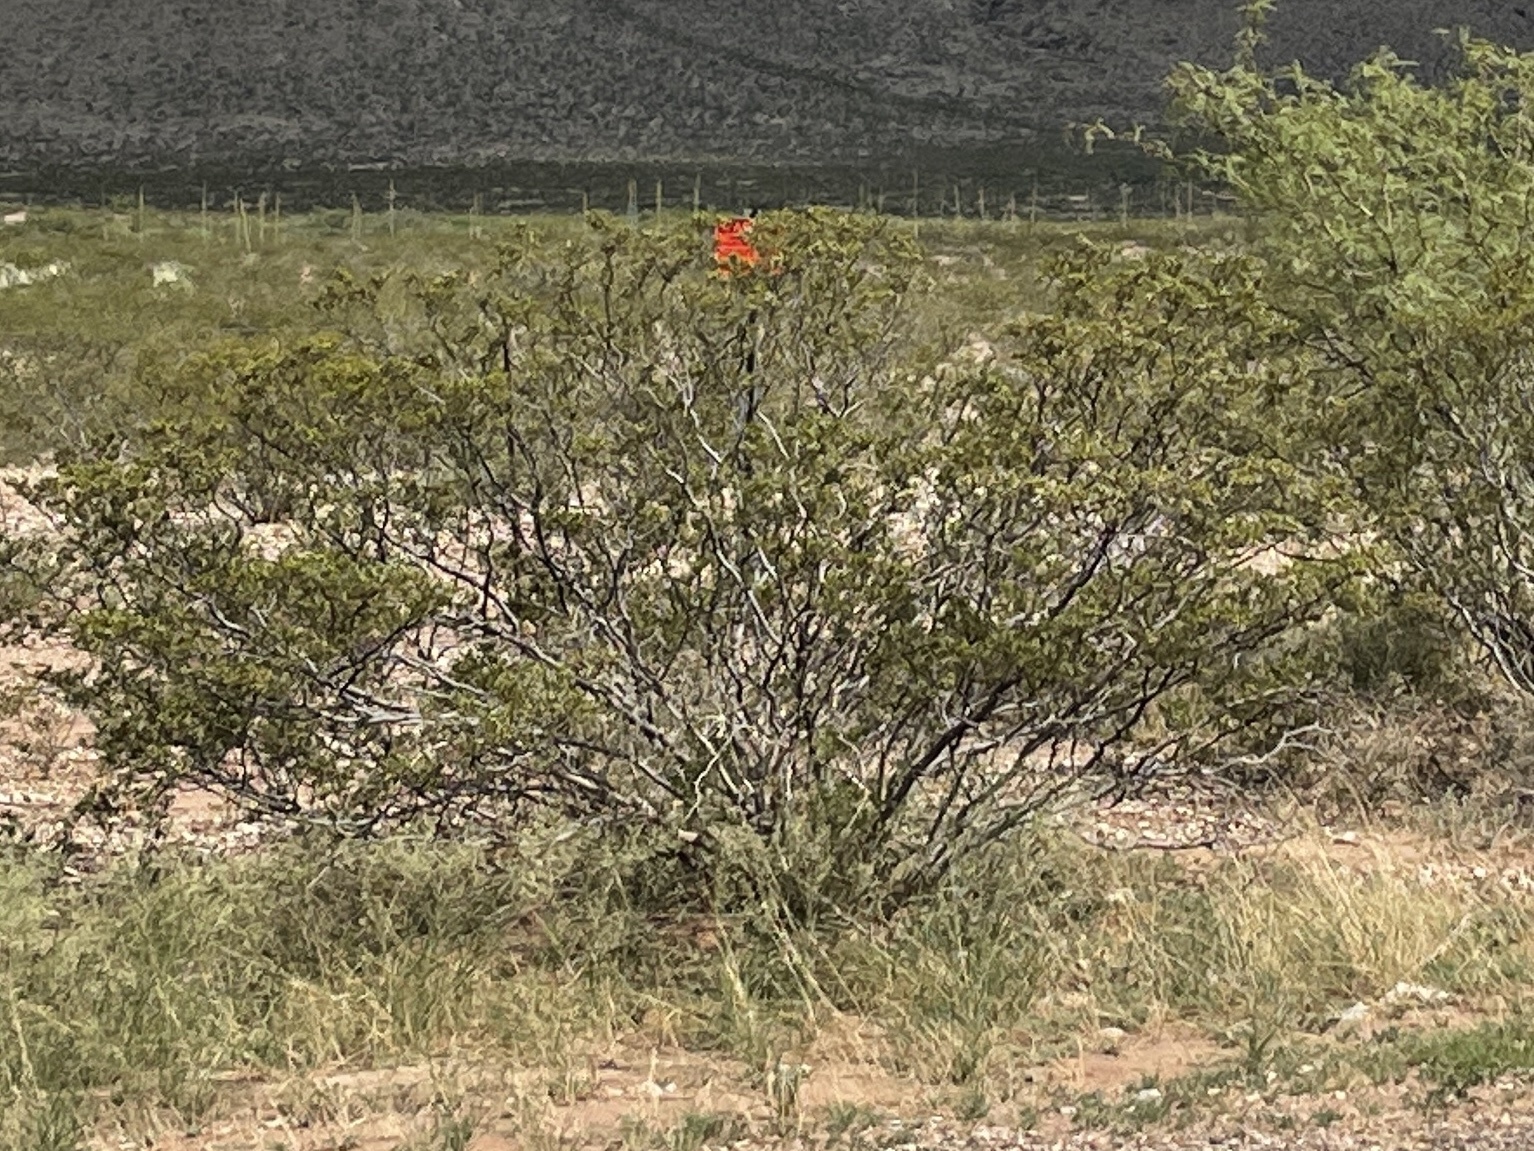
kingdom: Plantae
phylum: Tracheophyta
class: Magnoliopsida
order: Zygophyllales
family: Zygophyllaceae
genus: Larrea
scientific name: Larrea tridentata
